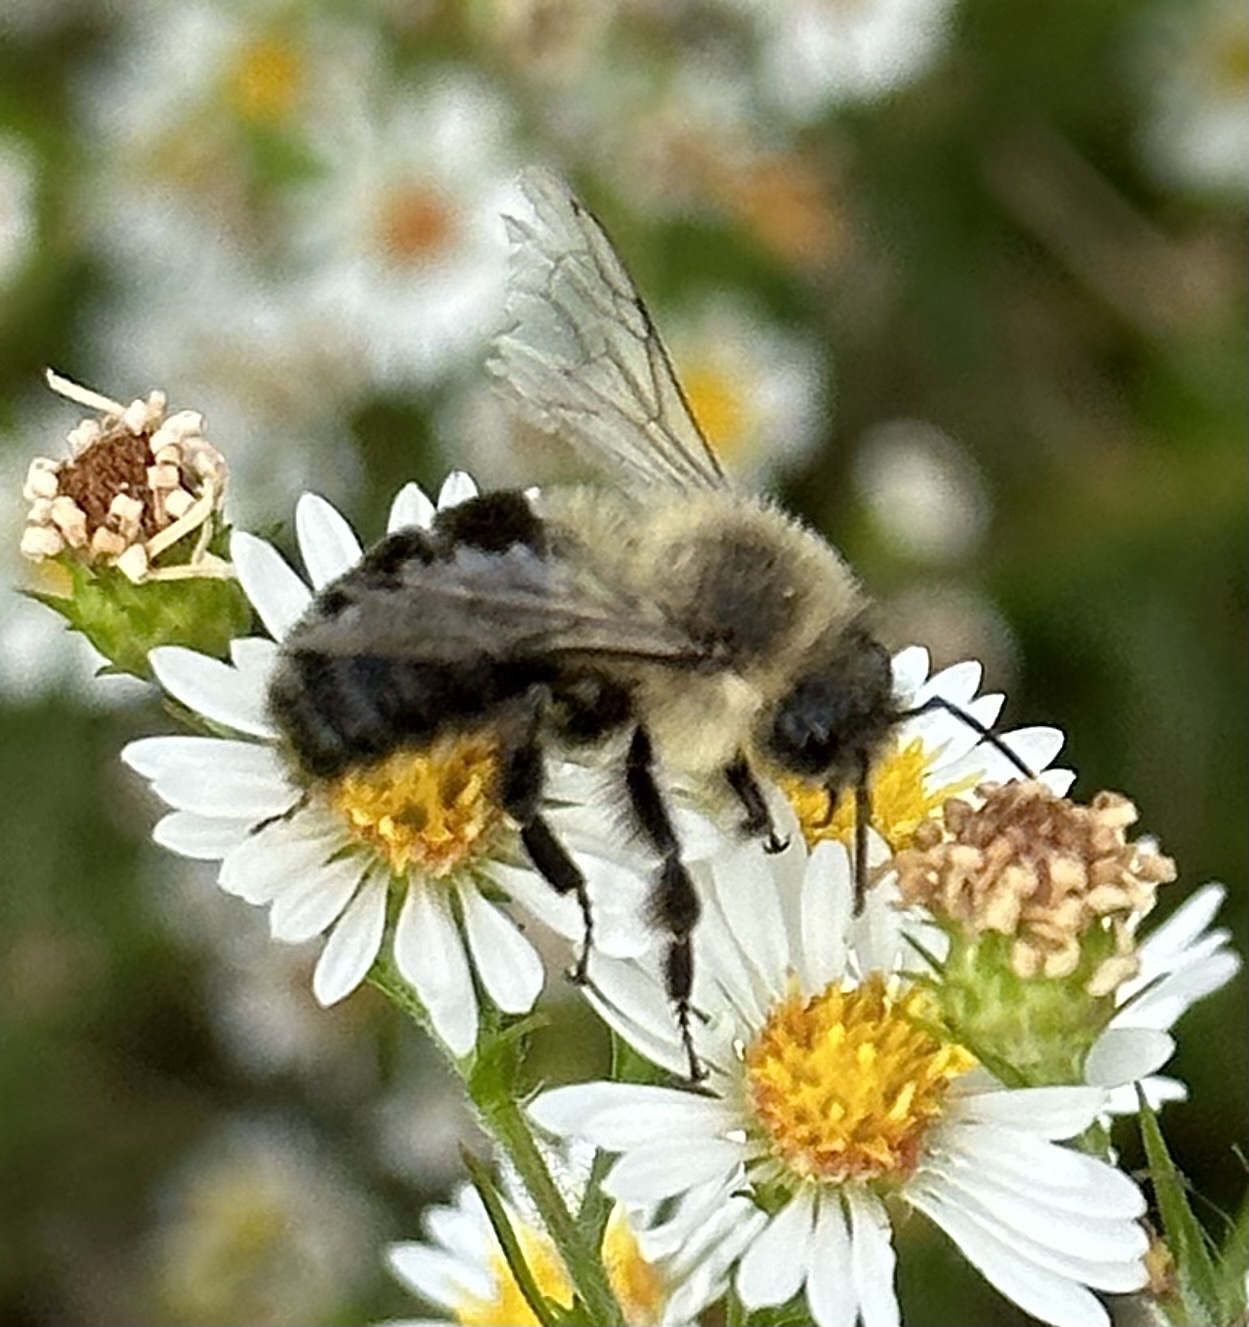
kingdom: Animalia
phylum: Arthropoda
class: Insecta
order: Hymenoptera
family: Apidae
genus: Bombus
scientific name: Bombus impatiens
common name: Common eastern bumble bee
